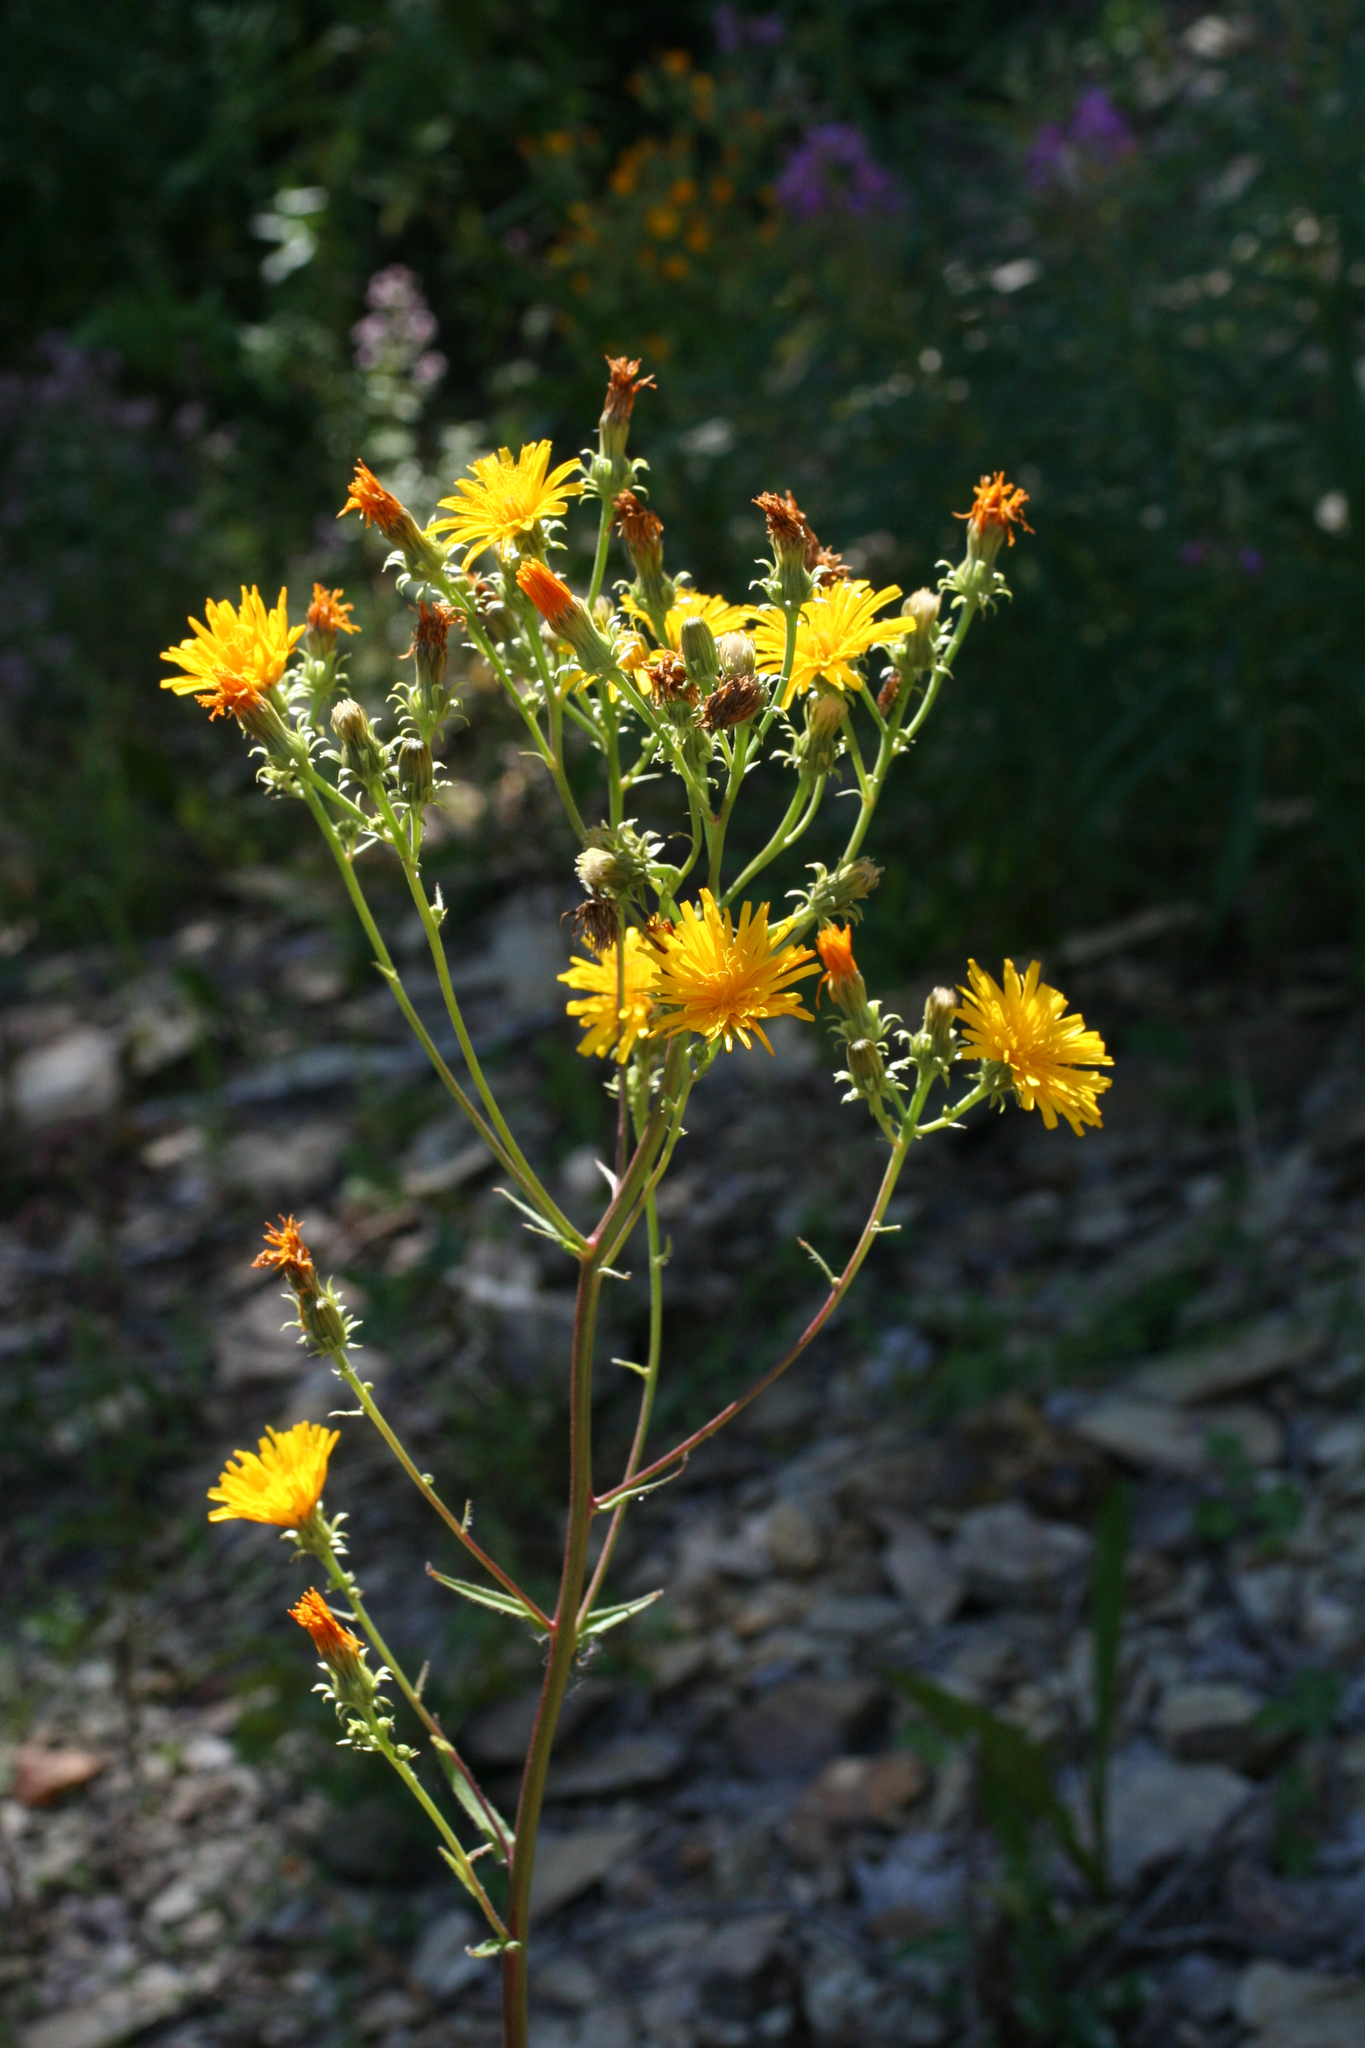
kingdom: Plantae
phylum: Tracheophyta
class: Magnoliopsida
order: Asterales
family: Asteraceae
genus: Picris
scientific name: Picris hieracioides
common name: Hawkweed oxtongue
